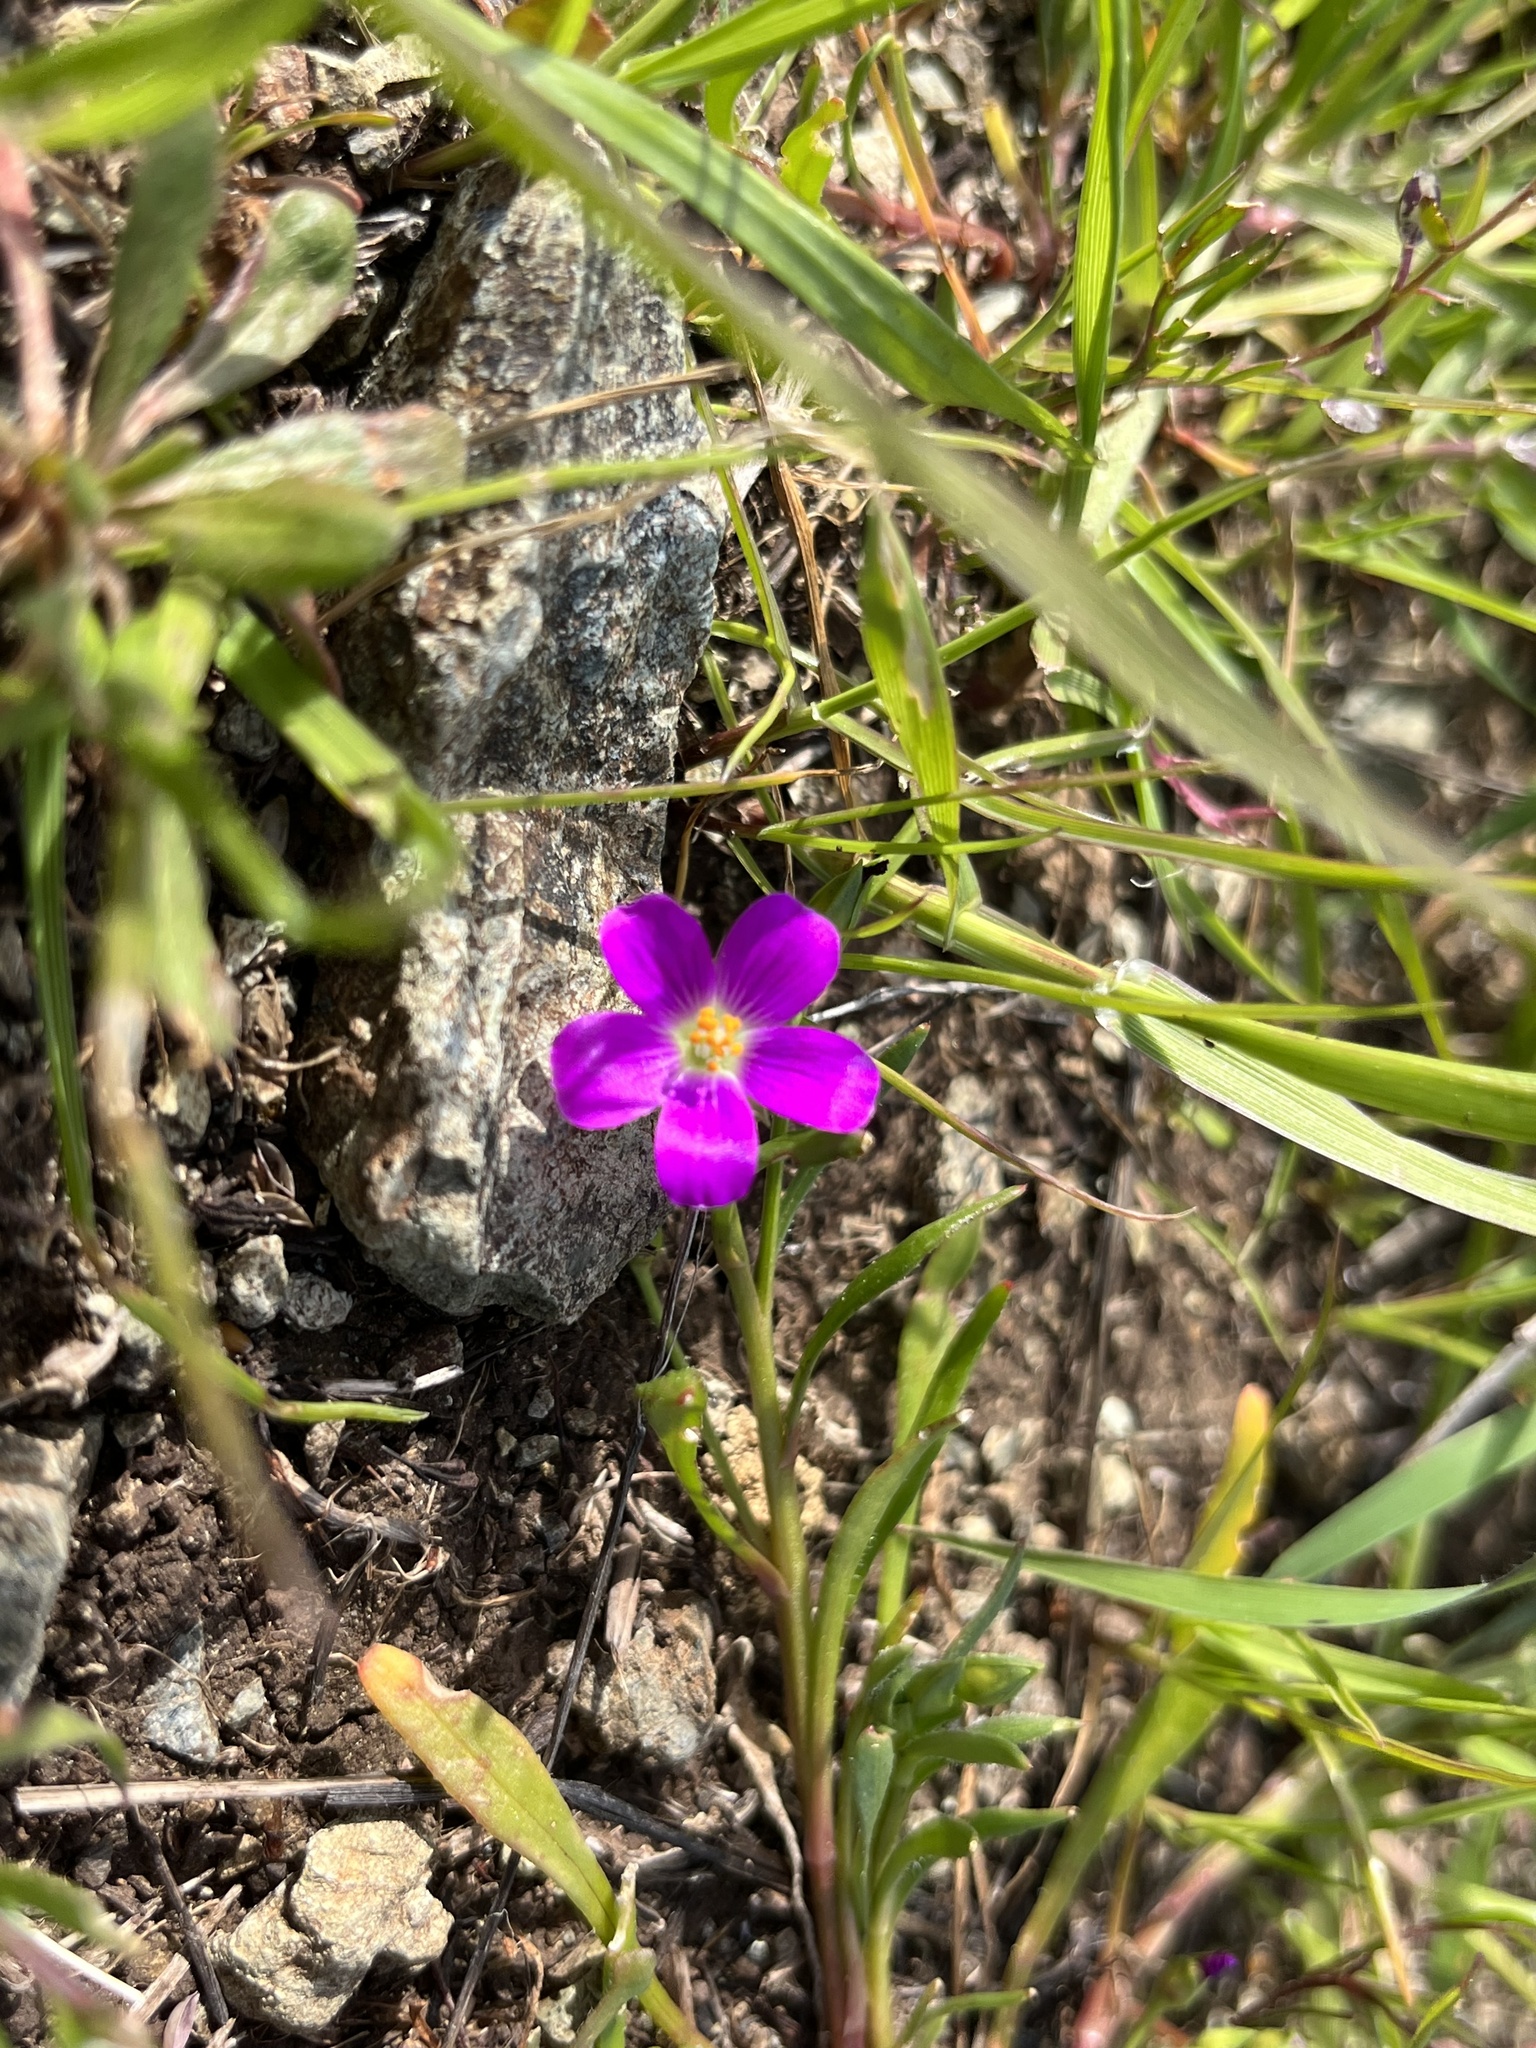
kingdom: Plantae
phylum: Tracheophyta
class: Magnoliopsida
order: Caryophyllales
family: Montiaceae
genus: Calandrinia
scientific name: Calandrinia menziesii
